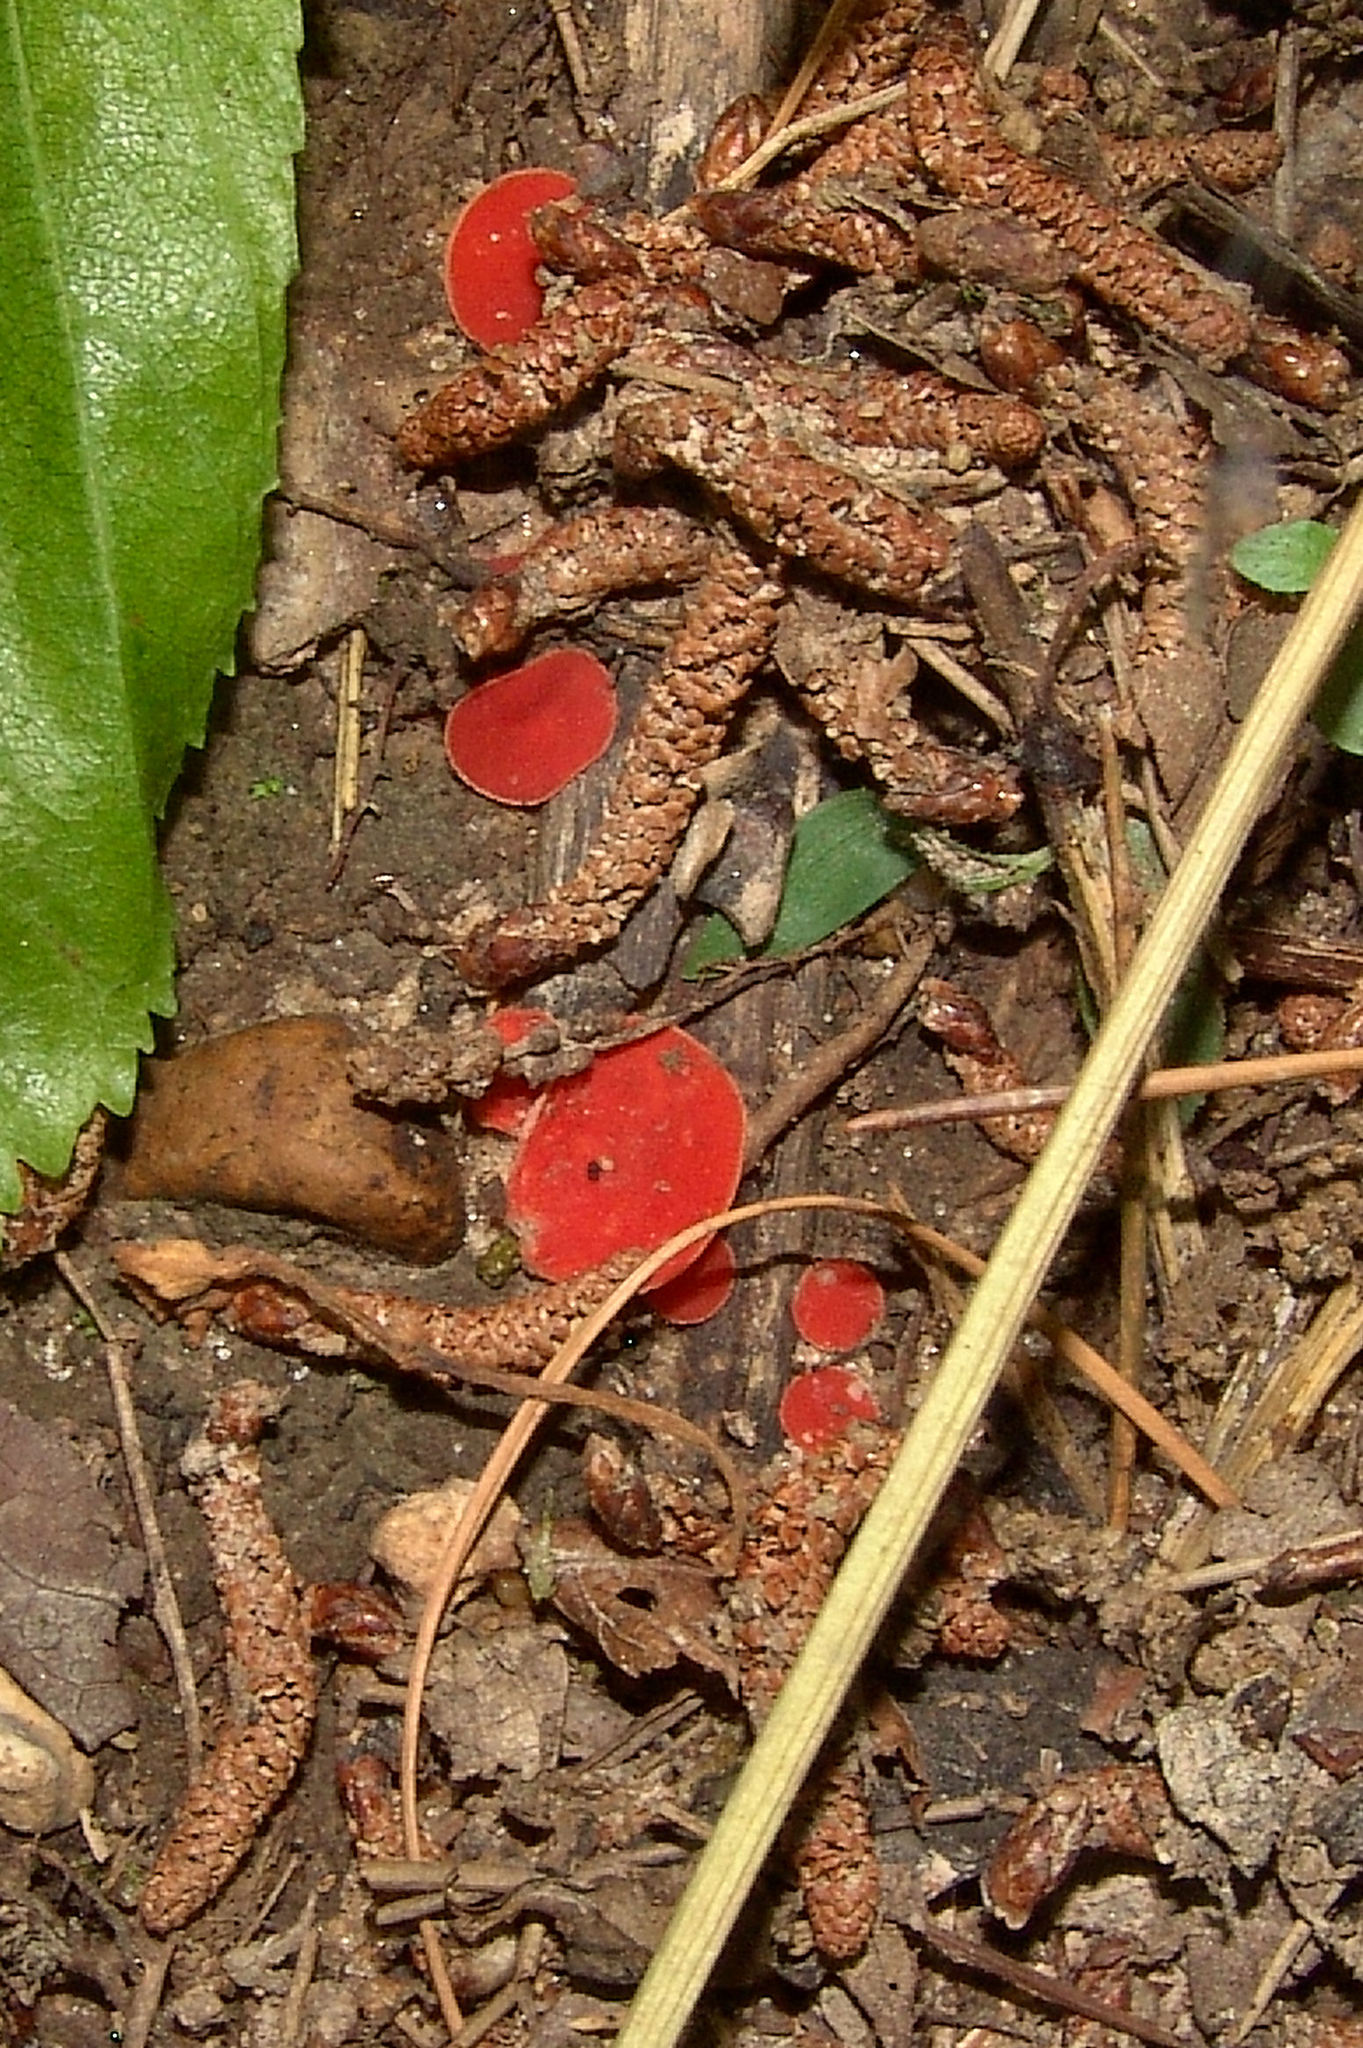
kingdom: Fungi
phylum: Ascomycota
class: Pezizomycetes
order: Pezizales
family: Sarcoscyphaceae
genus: Sarcoscypha
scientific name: Sarcoscypha occidentalis
